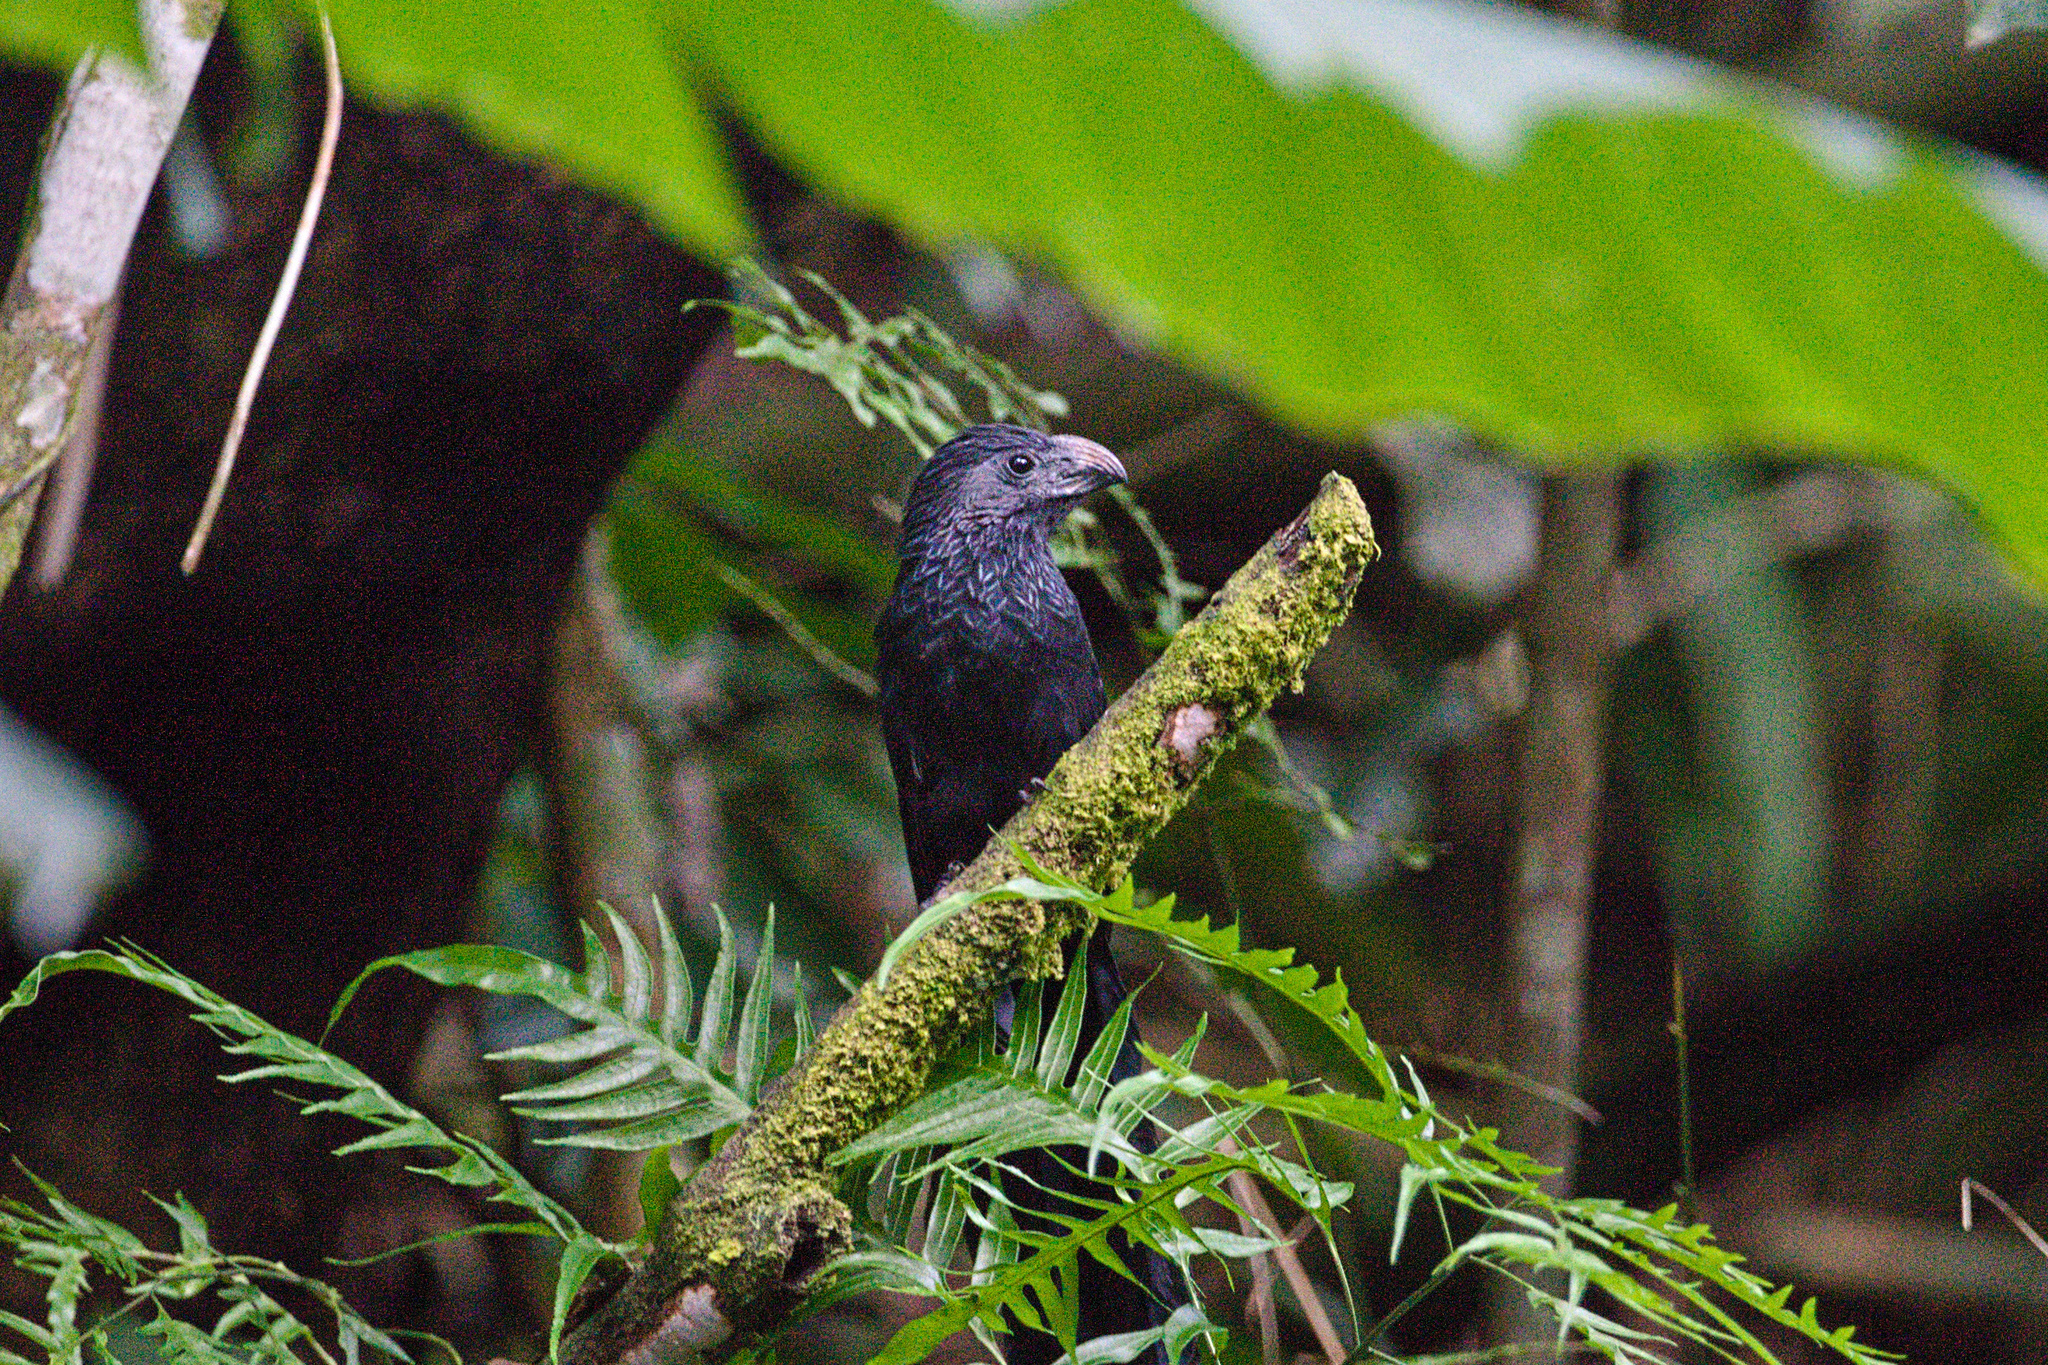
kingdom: Animalia
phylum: Chordata
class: Aves
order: Cuculiformes
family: Cuculidae
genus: Crotophaga
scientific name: Crotophaga sulcirostris
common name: Groove-billed ani
